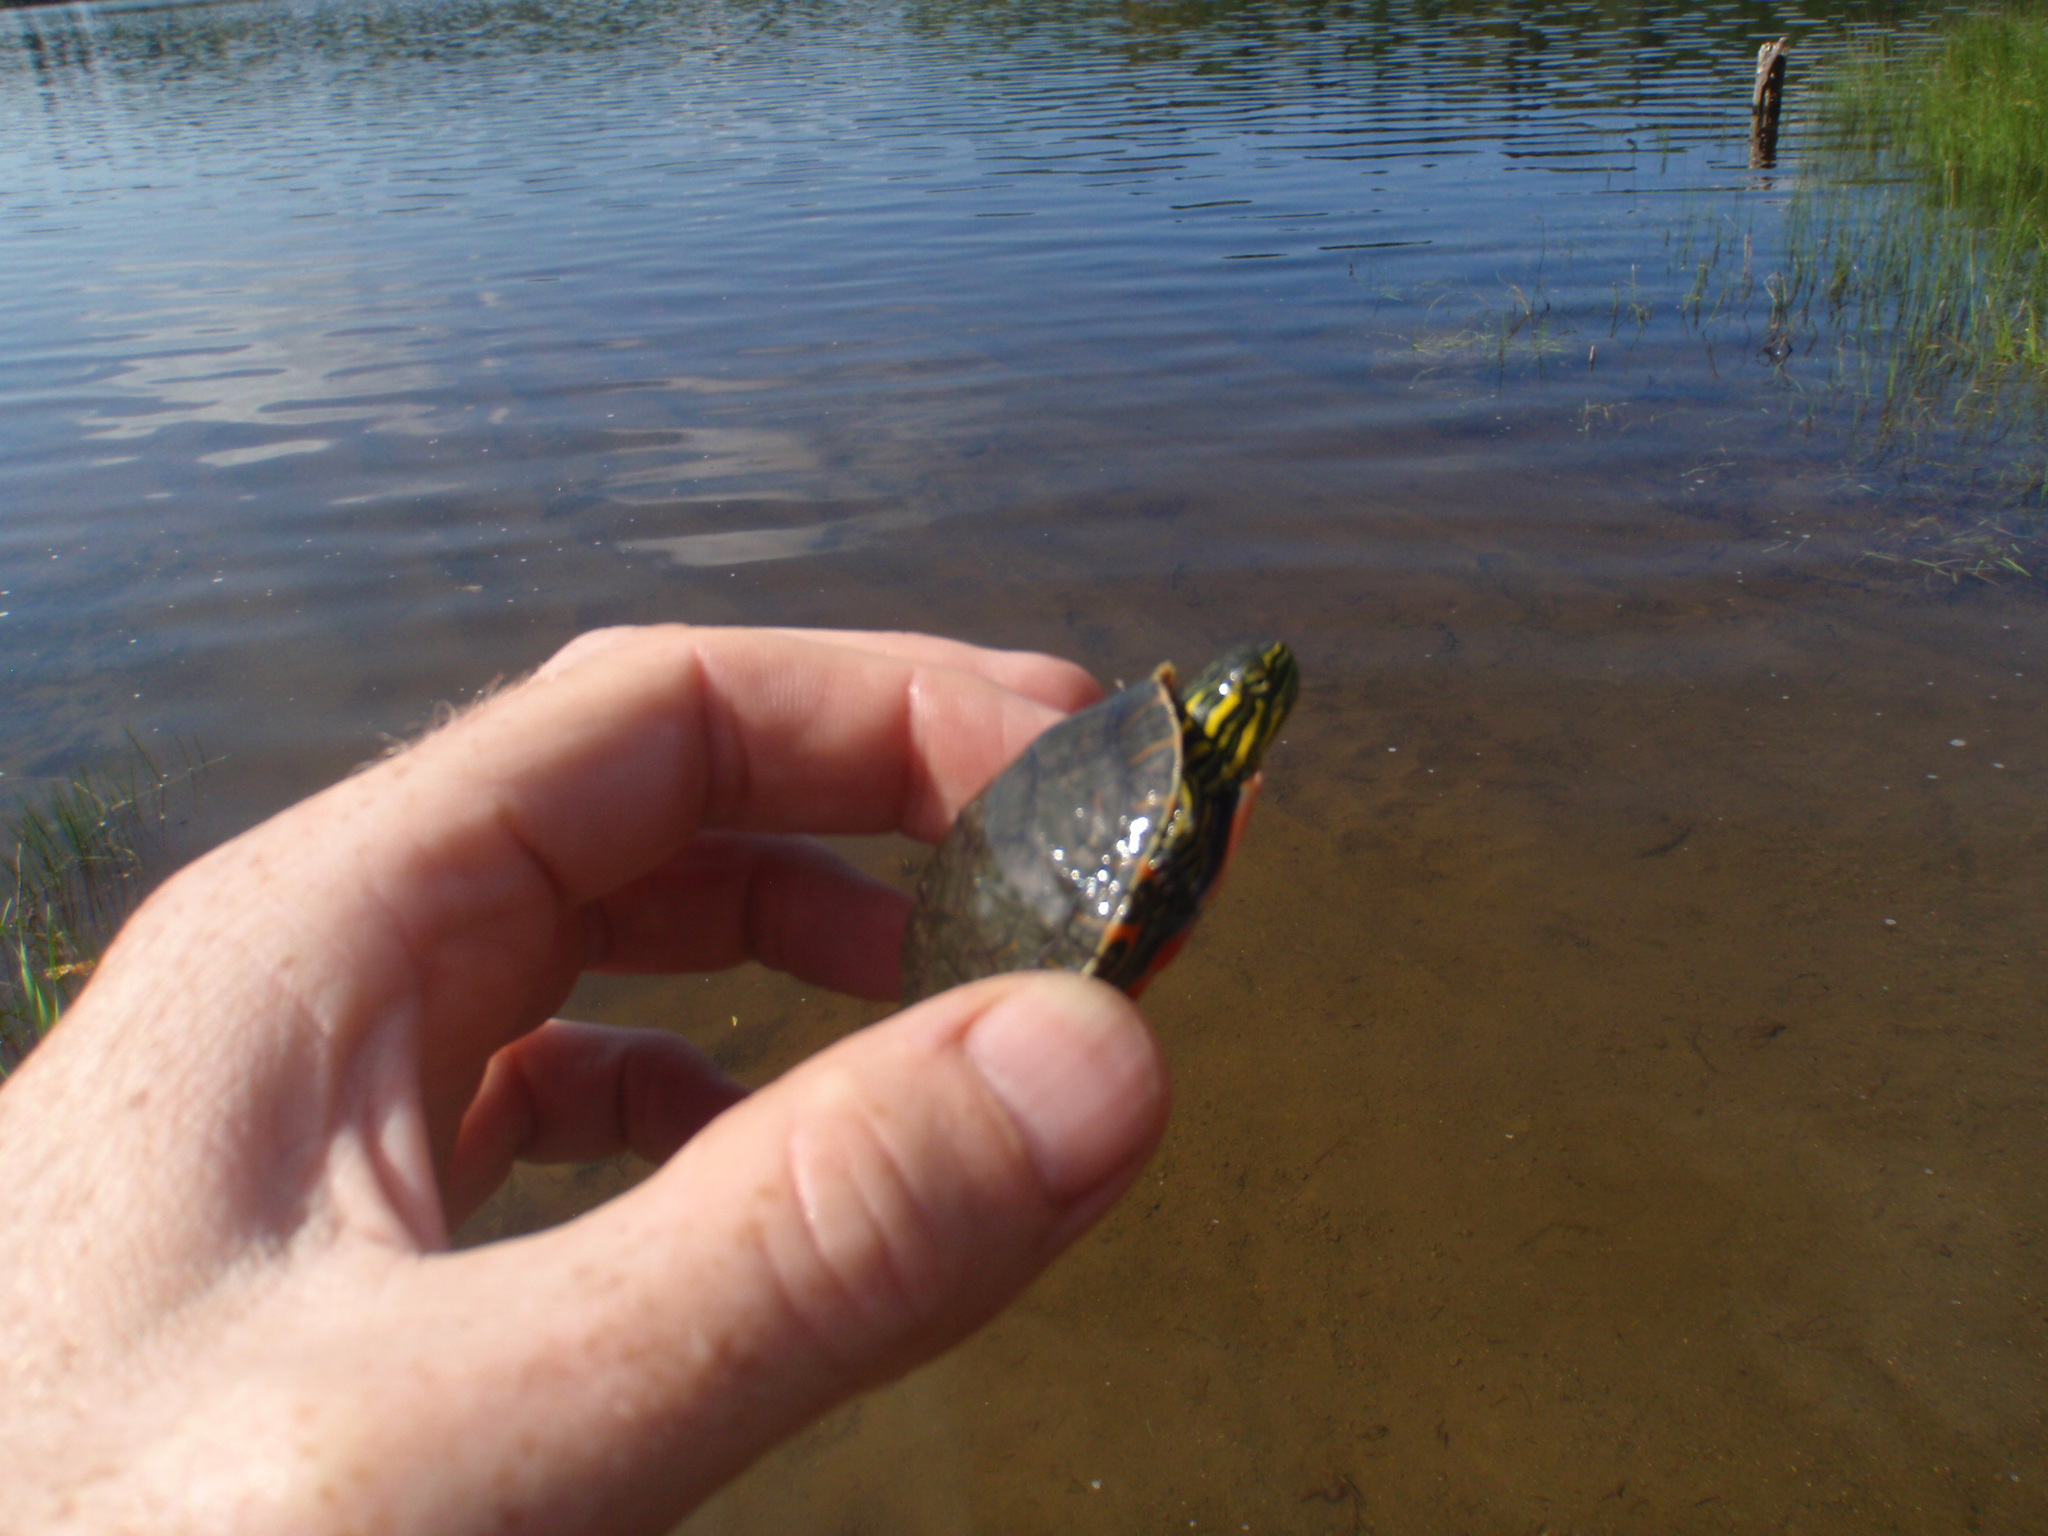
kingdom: Animalia
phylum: Chordata
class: Testudines
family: Emydidae
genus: Chrysemys
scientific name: Chrysemys picta
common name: Painted turtle
